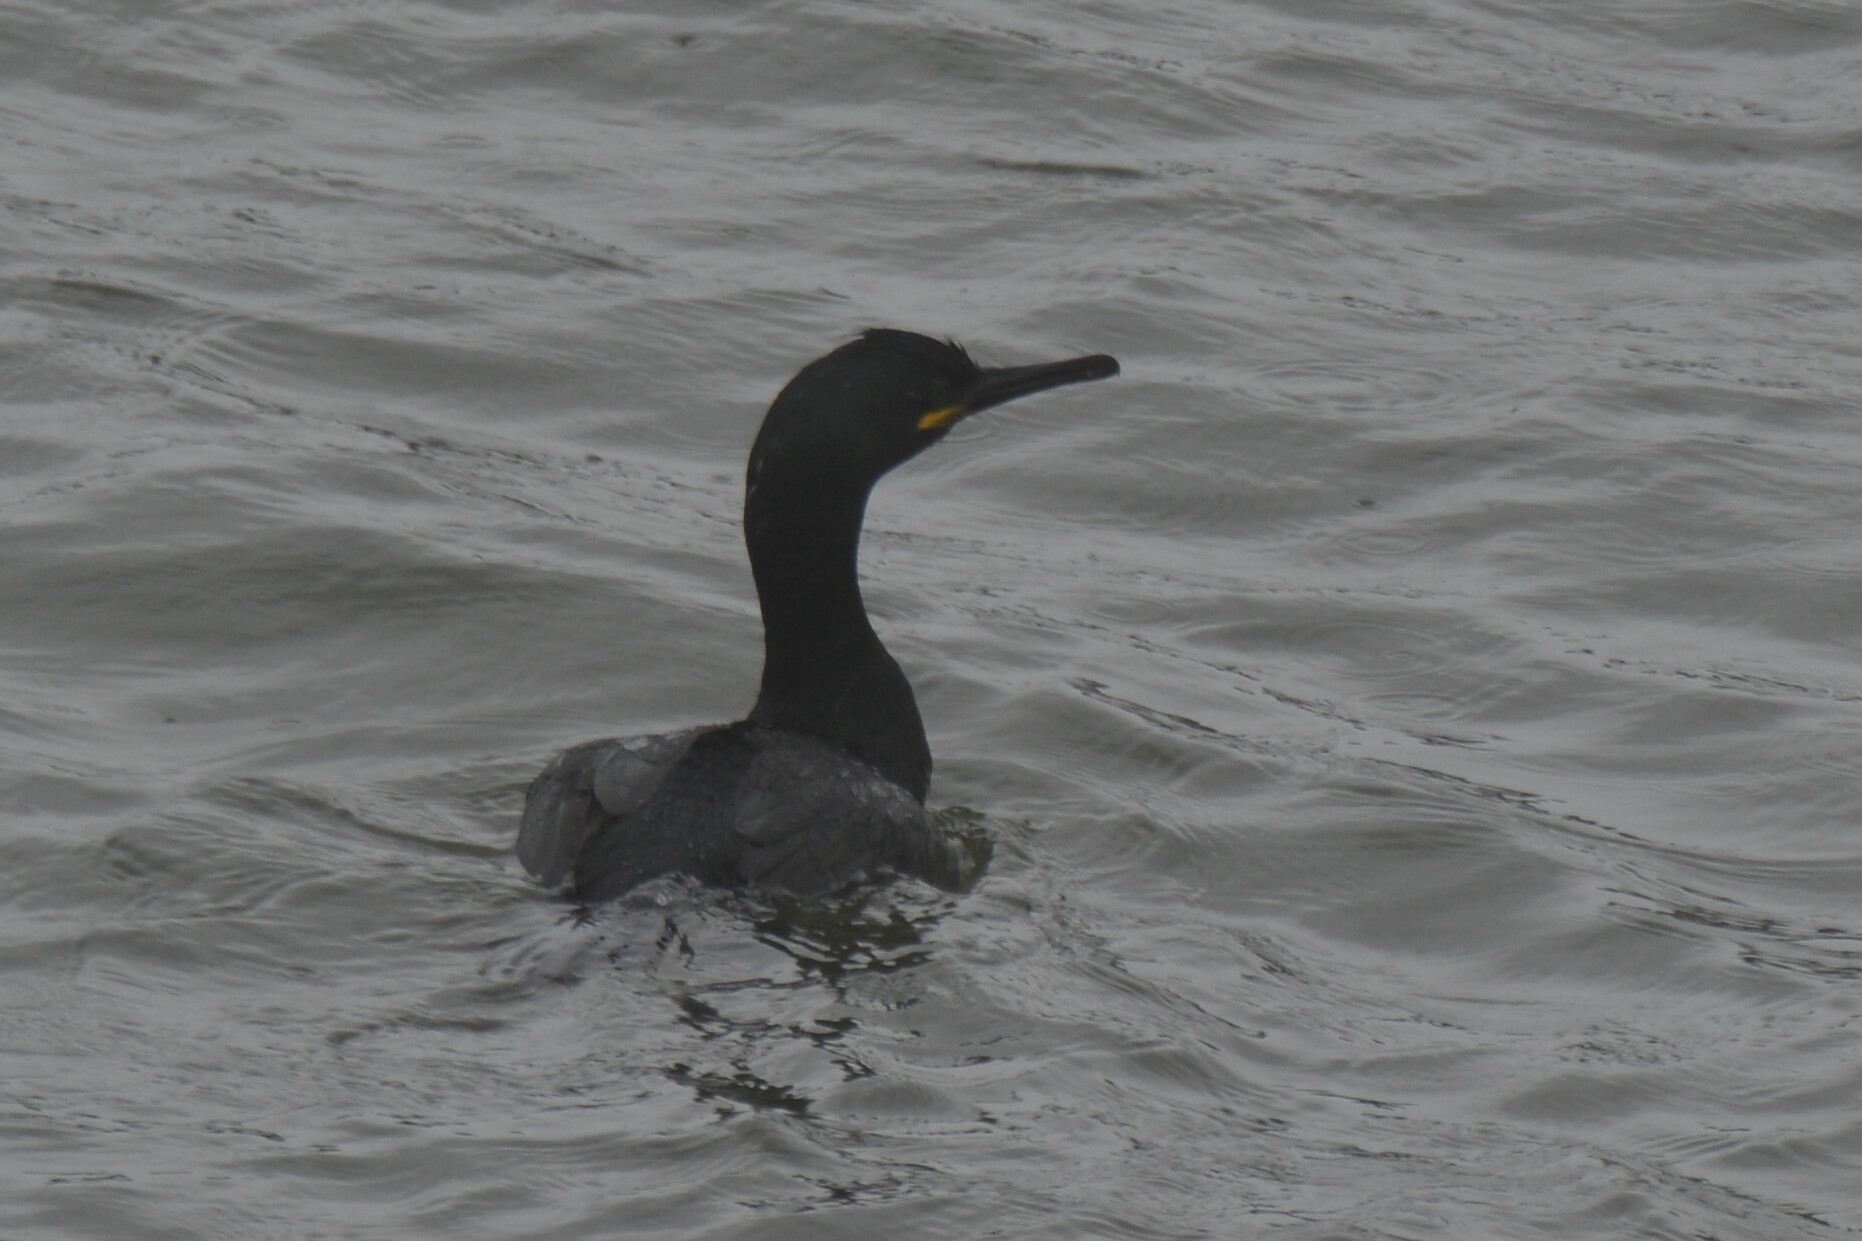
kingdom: Animalia
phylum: Chordata
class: Aves
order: Suliformes
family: Phalacrocoracidae
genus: Phalacrocorax
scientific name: Phalacrocorax aristotelis
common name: European shag
